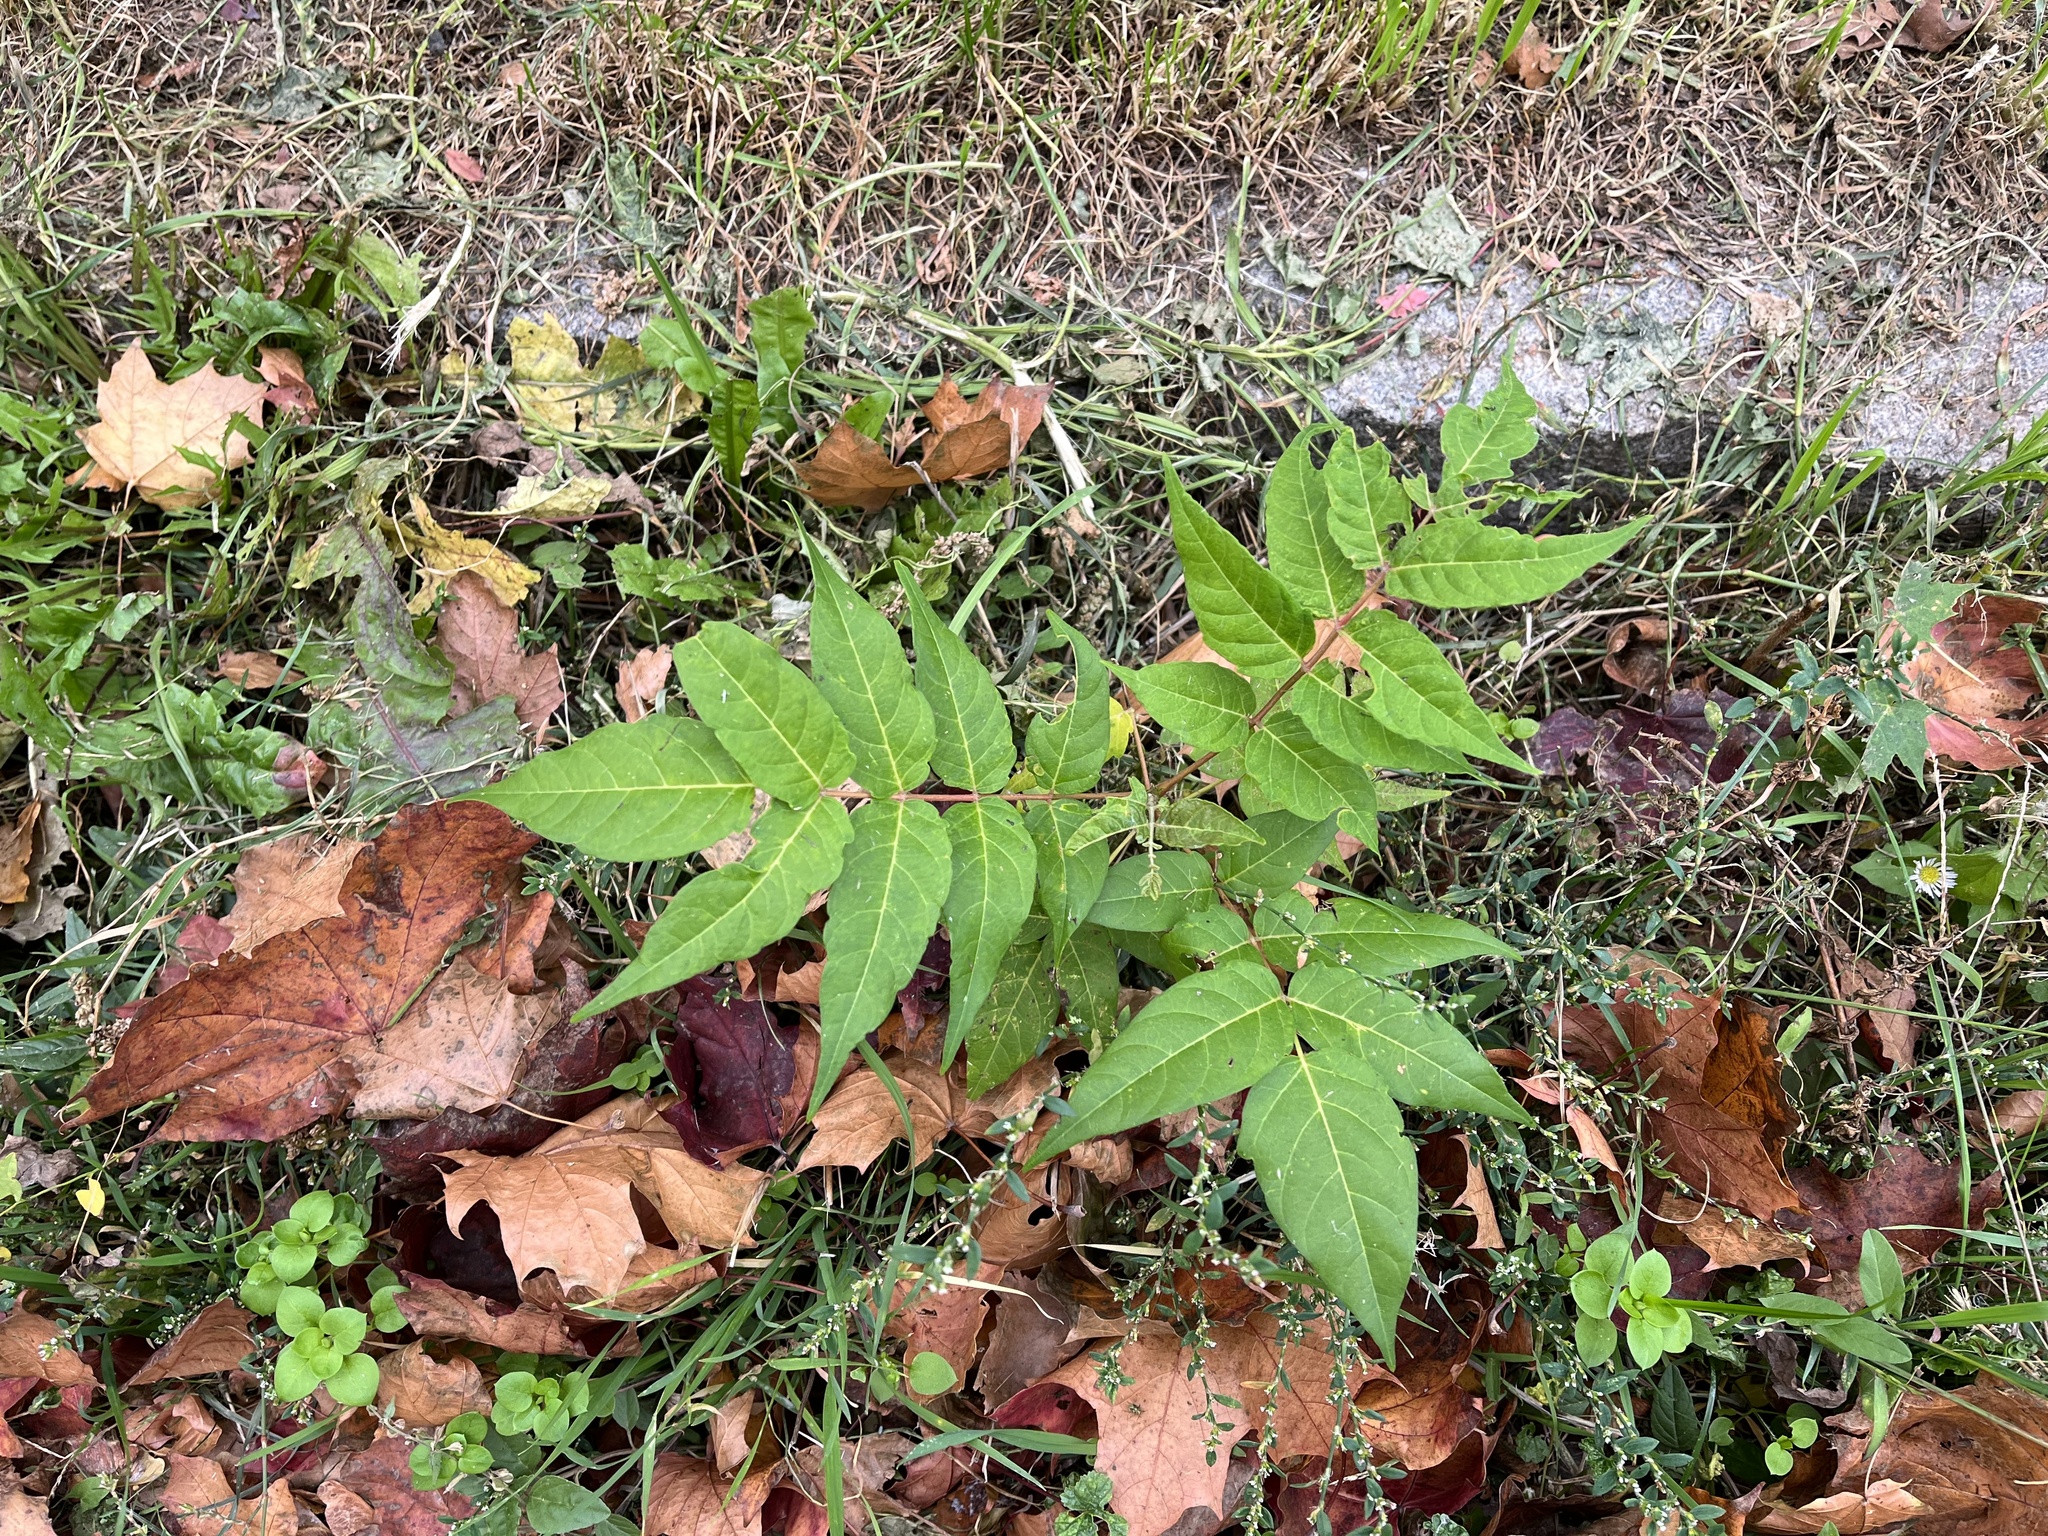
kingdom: Plantae
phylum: Tracheophyta
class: Magnoliopsida
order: Sapindales
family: Simaroubaceae
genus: Ailanthus
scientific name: Ailanthus altissima
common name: Tree-of-heaven
